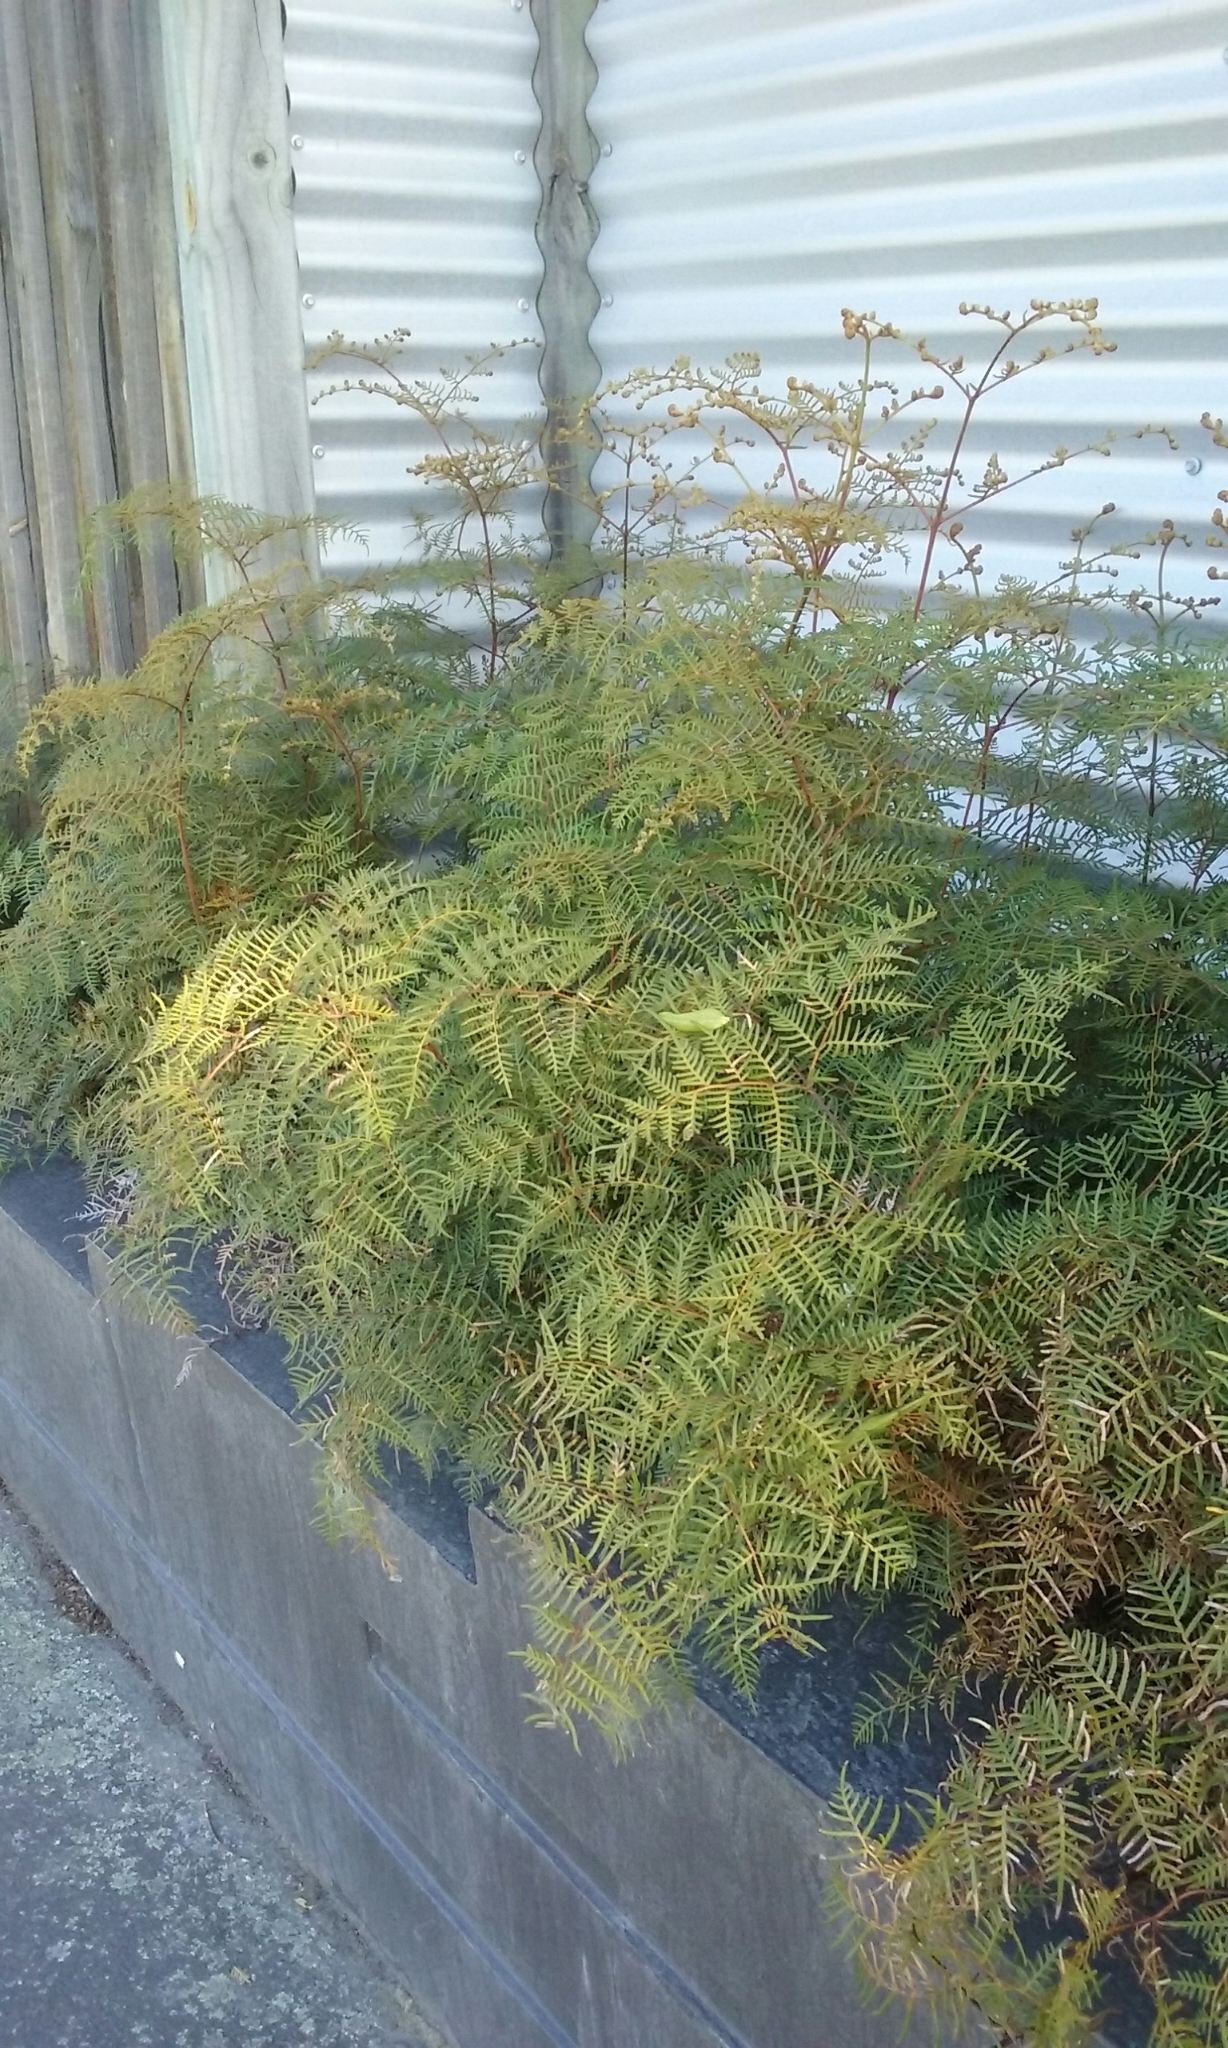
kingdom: Plantae
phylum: Tracheophyta
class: Polypodiopsida
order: Polypodiales
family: Dennstaedtiaceae
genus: Pteridium
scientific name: Pteridium esculentum
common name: Bracken fern
